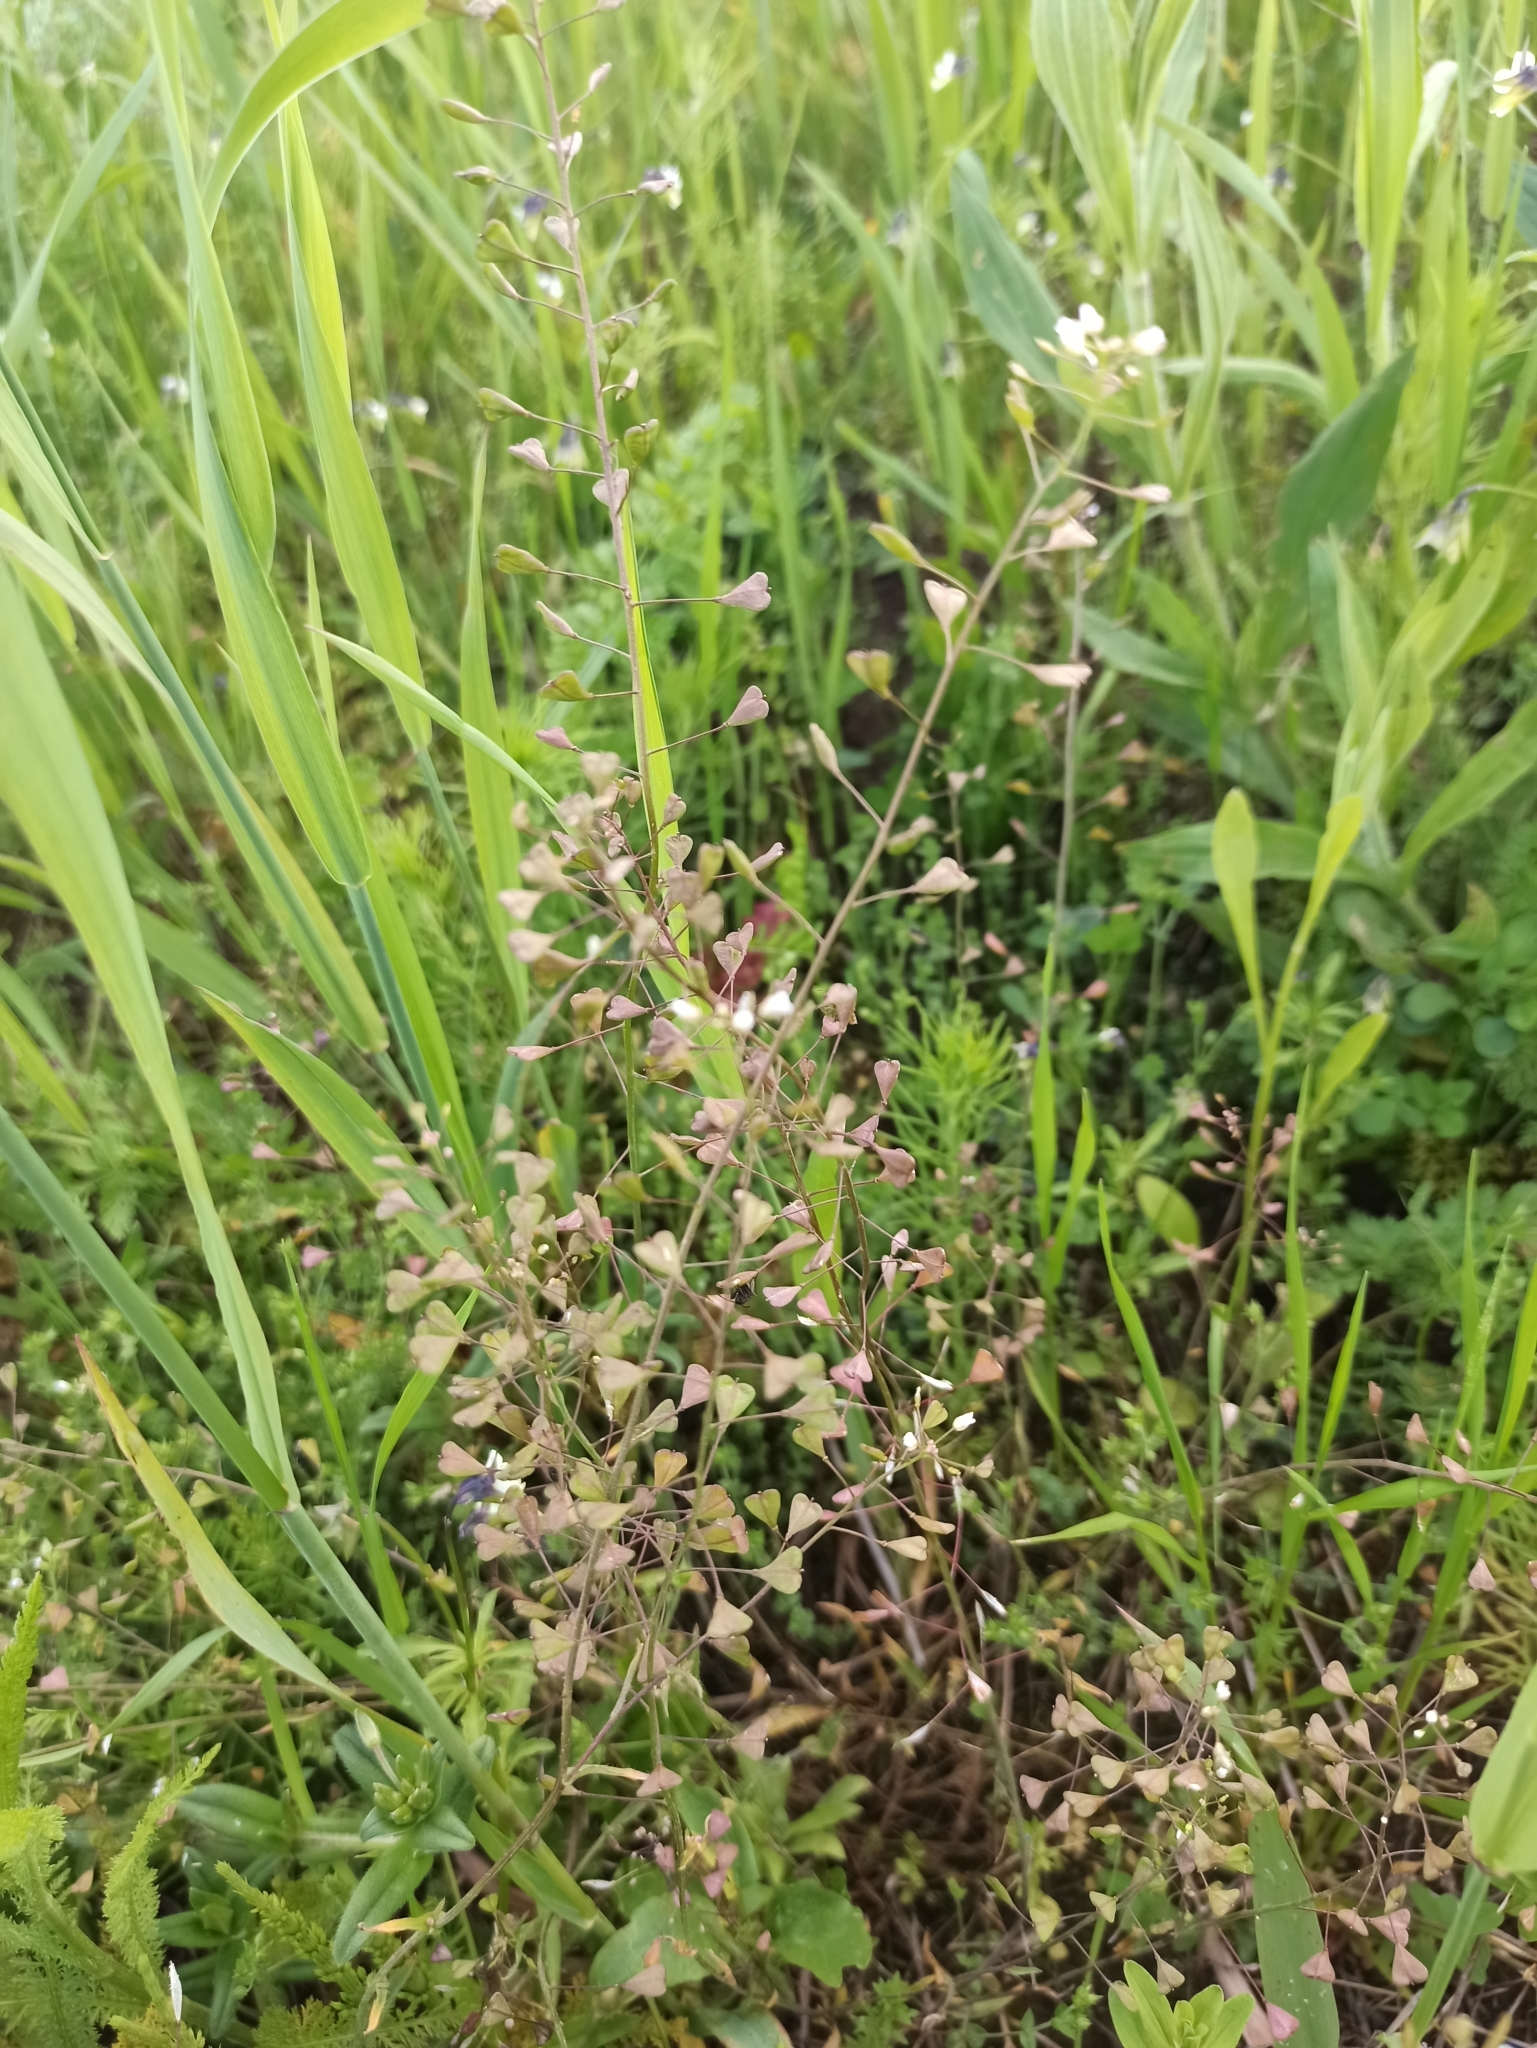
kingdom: Plantae
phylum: Tracheophyta
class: Magnoliopsida
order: Brassicales
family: Brassicaceae
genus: Capsella
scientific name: Capsella bursa-pastoris
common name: Shepherd's purse
